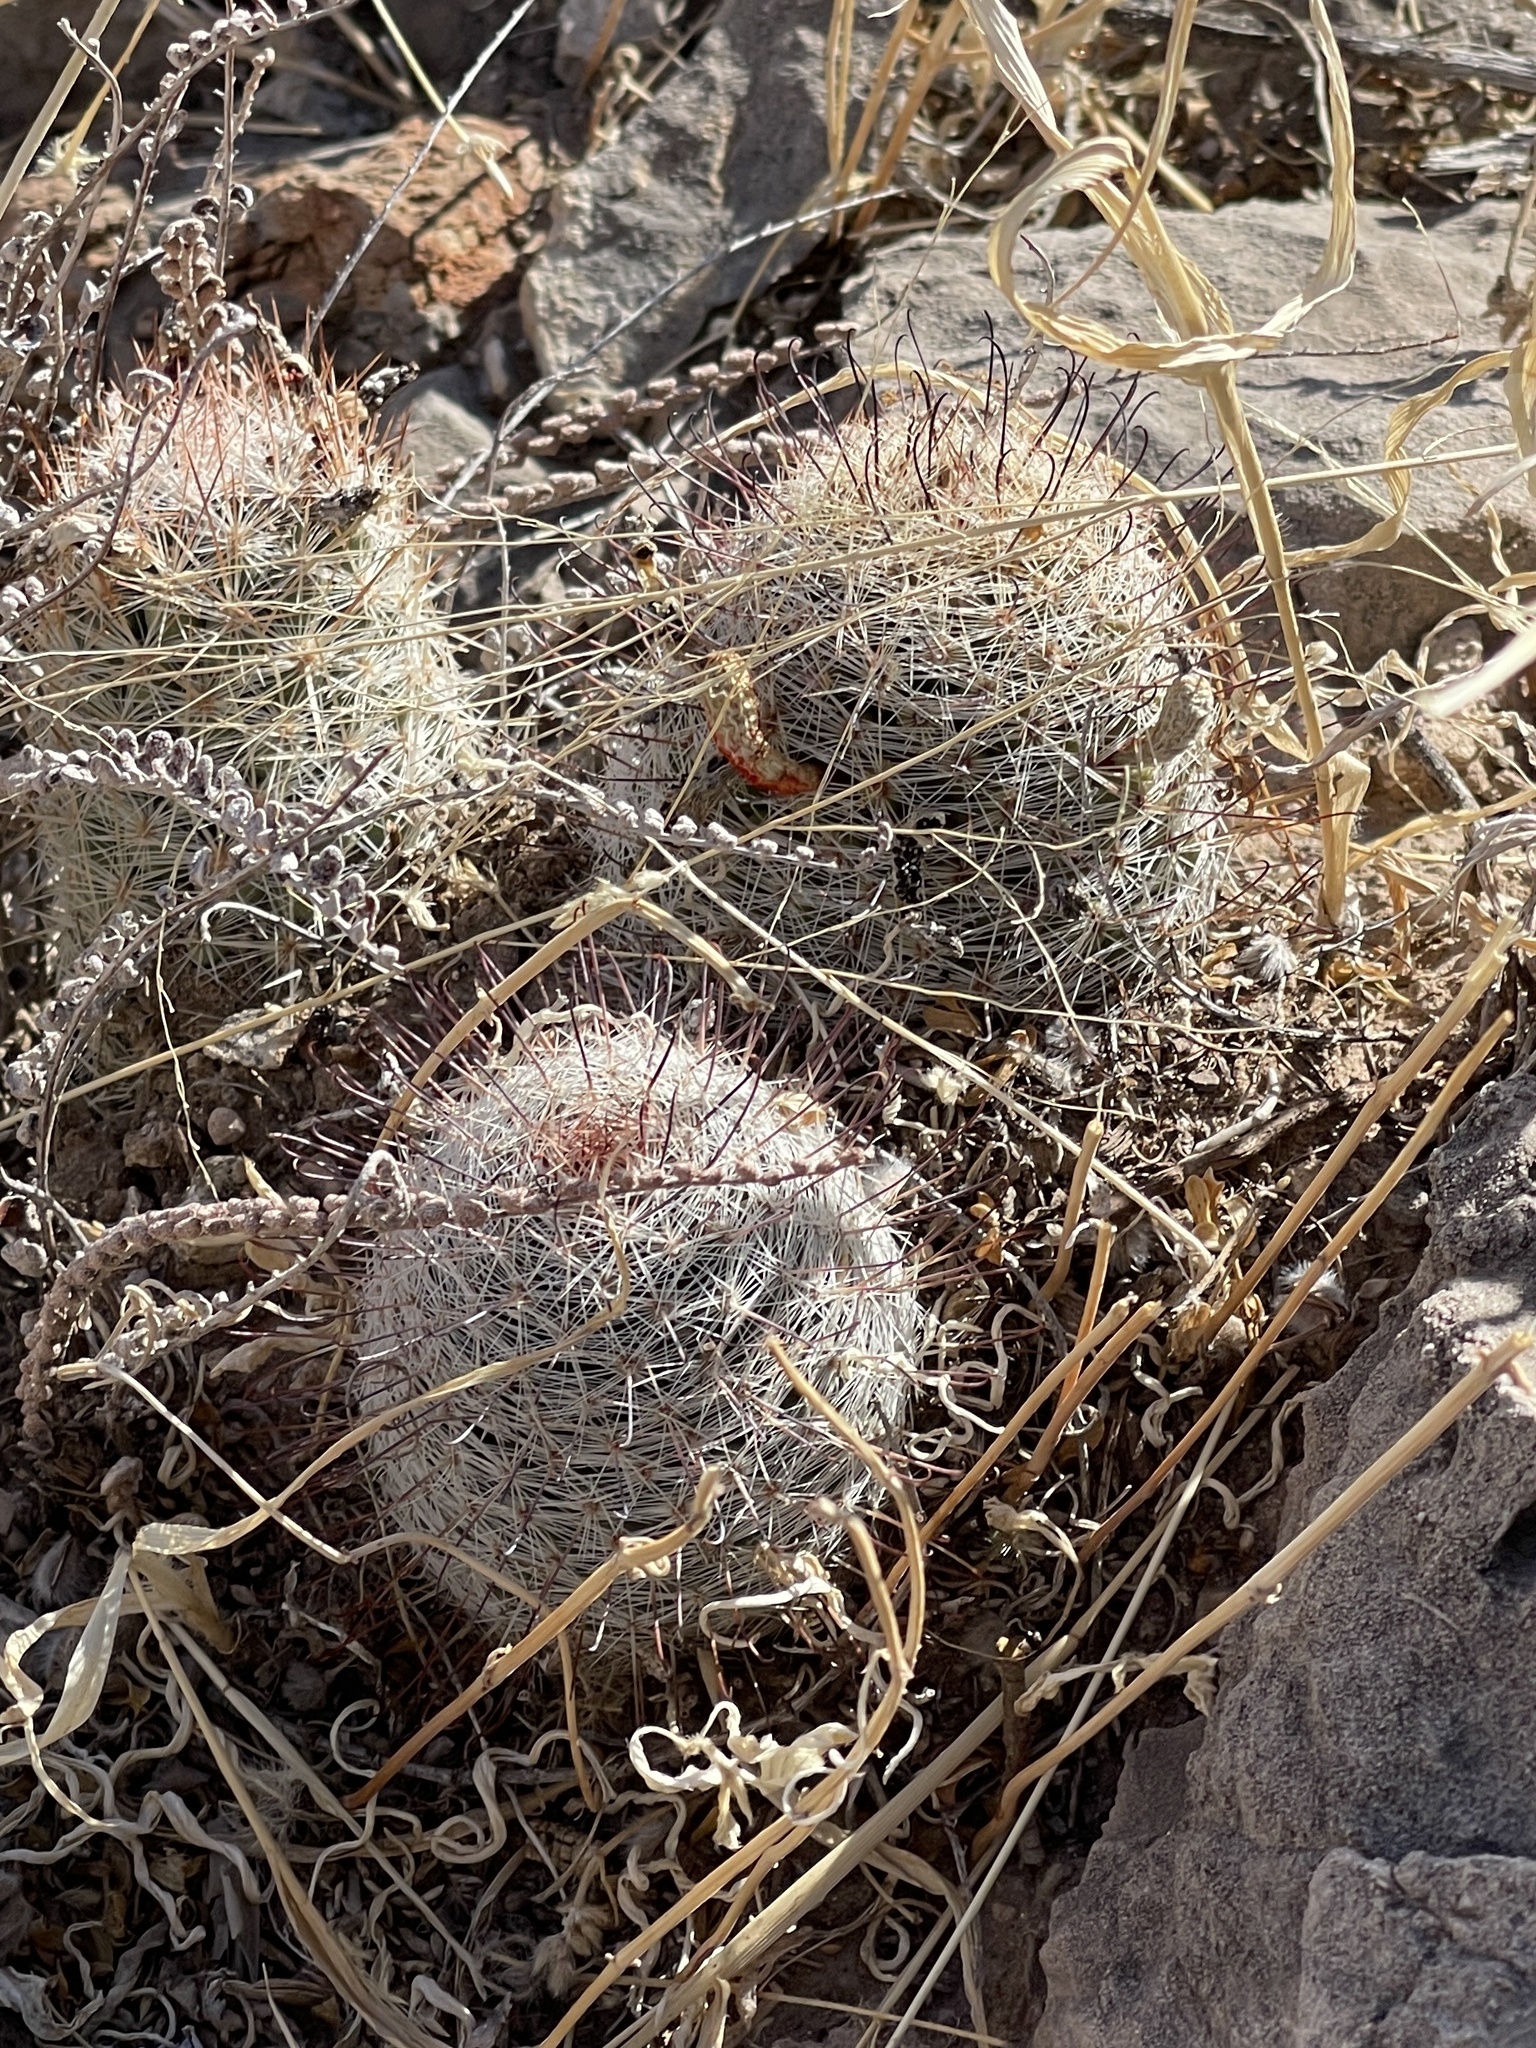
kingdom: Plantae
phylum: Tracheophyta
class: Magnoliopsida
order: Caryophyllales
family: Cactaceae
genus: Cochemiea
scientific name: Cochemiea grahamii
